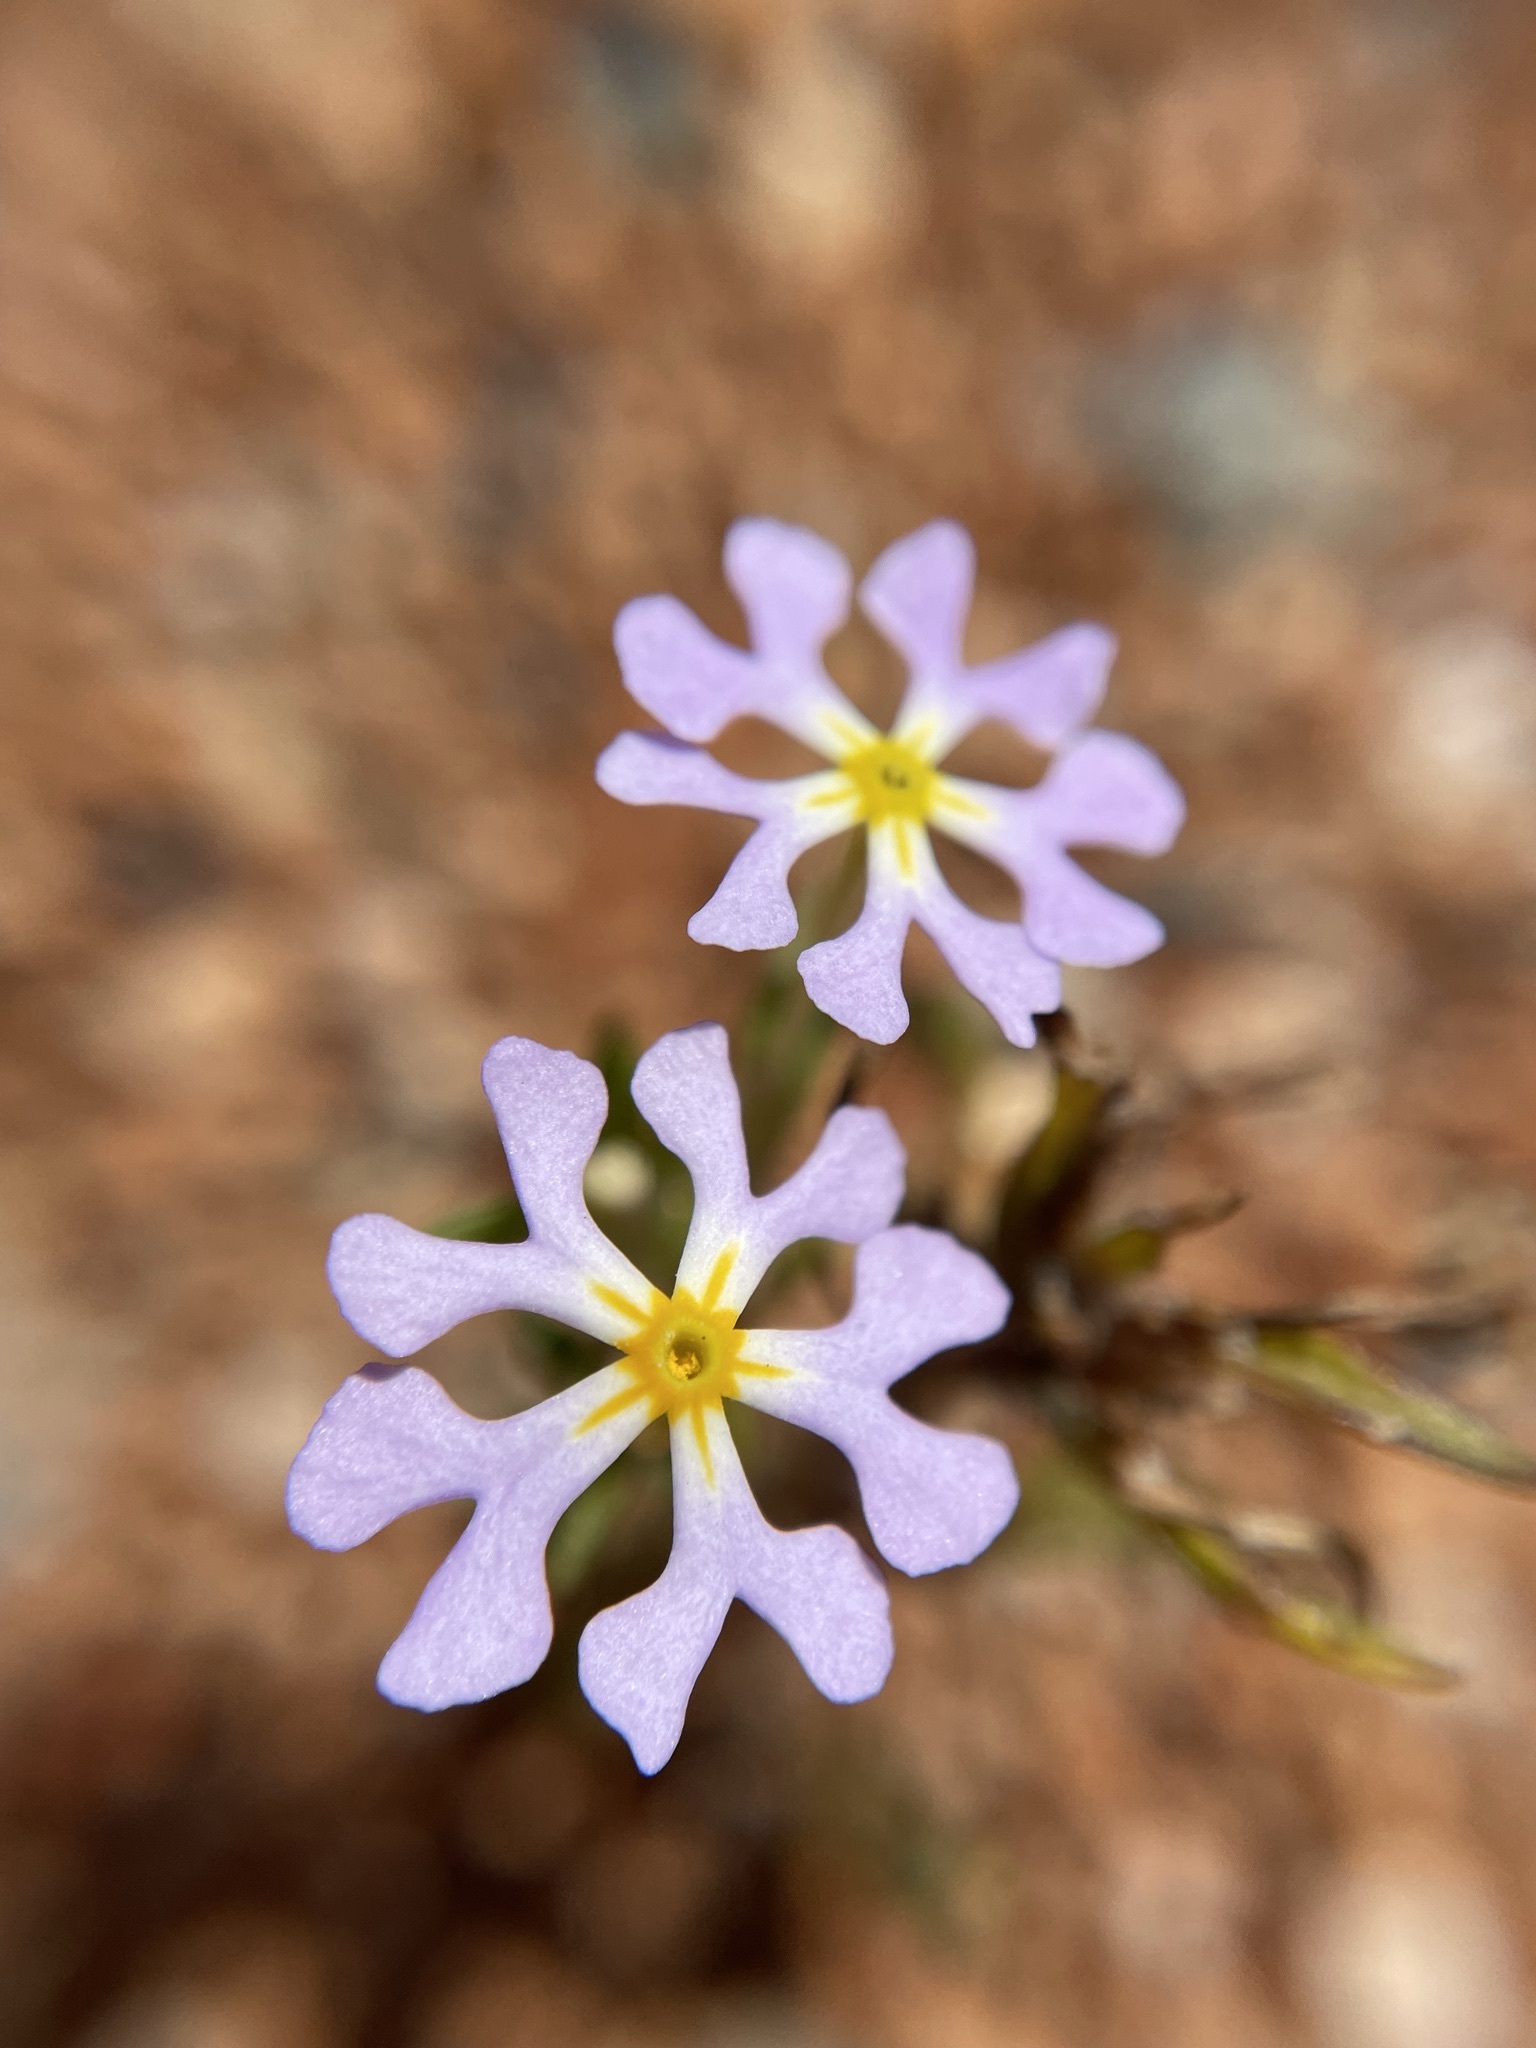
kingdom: Plantae
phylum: Tracheophyta
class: Magnoliopsida
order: Lamiales
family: Scrophulariaceae
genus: Zaluzianskya
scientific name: Zaluzianskya affinis
